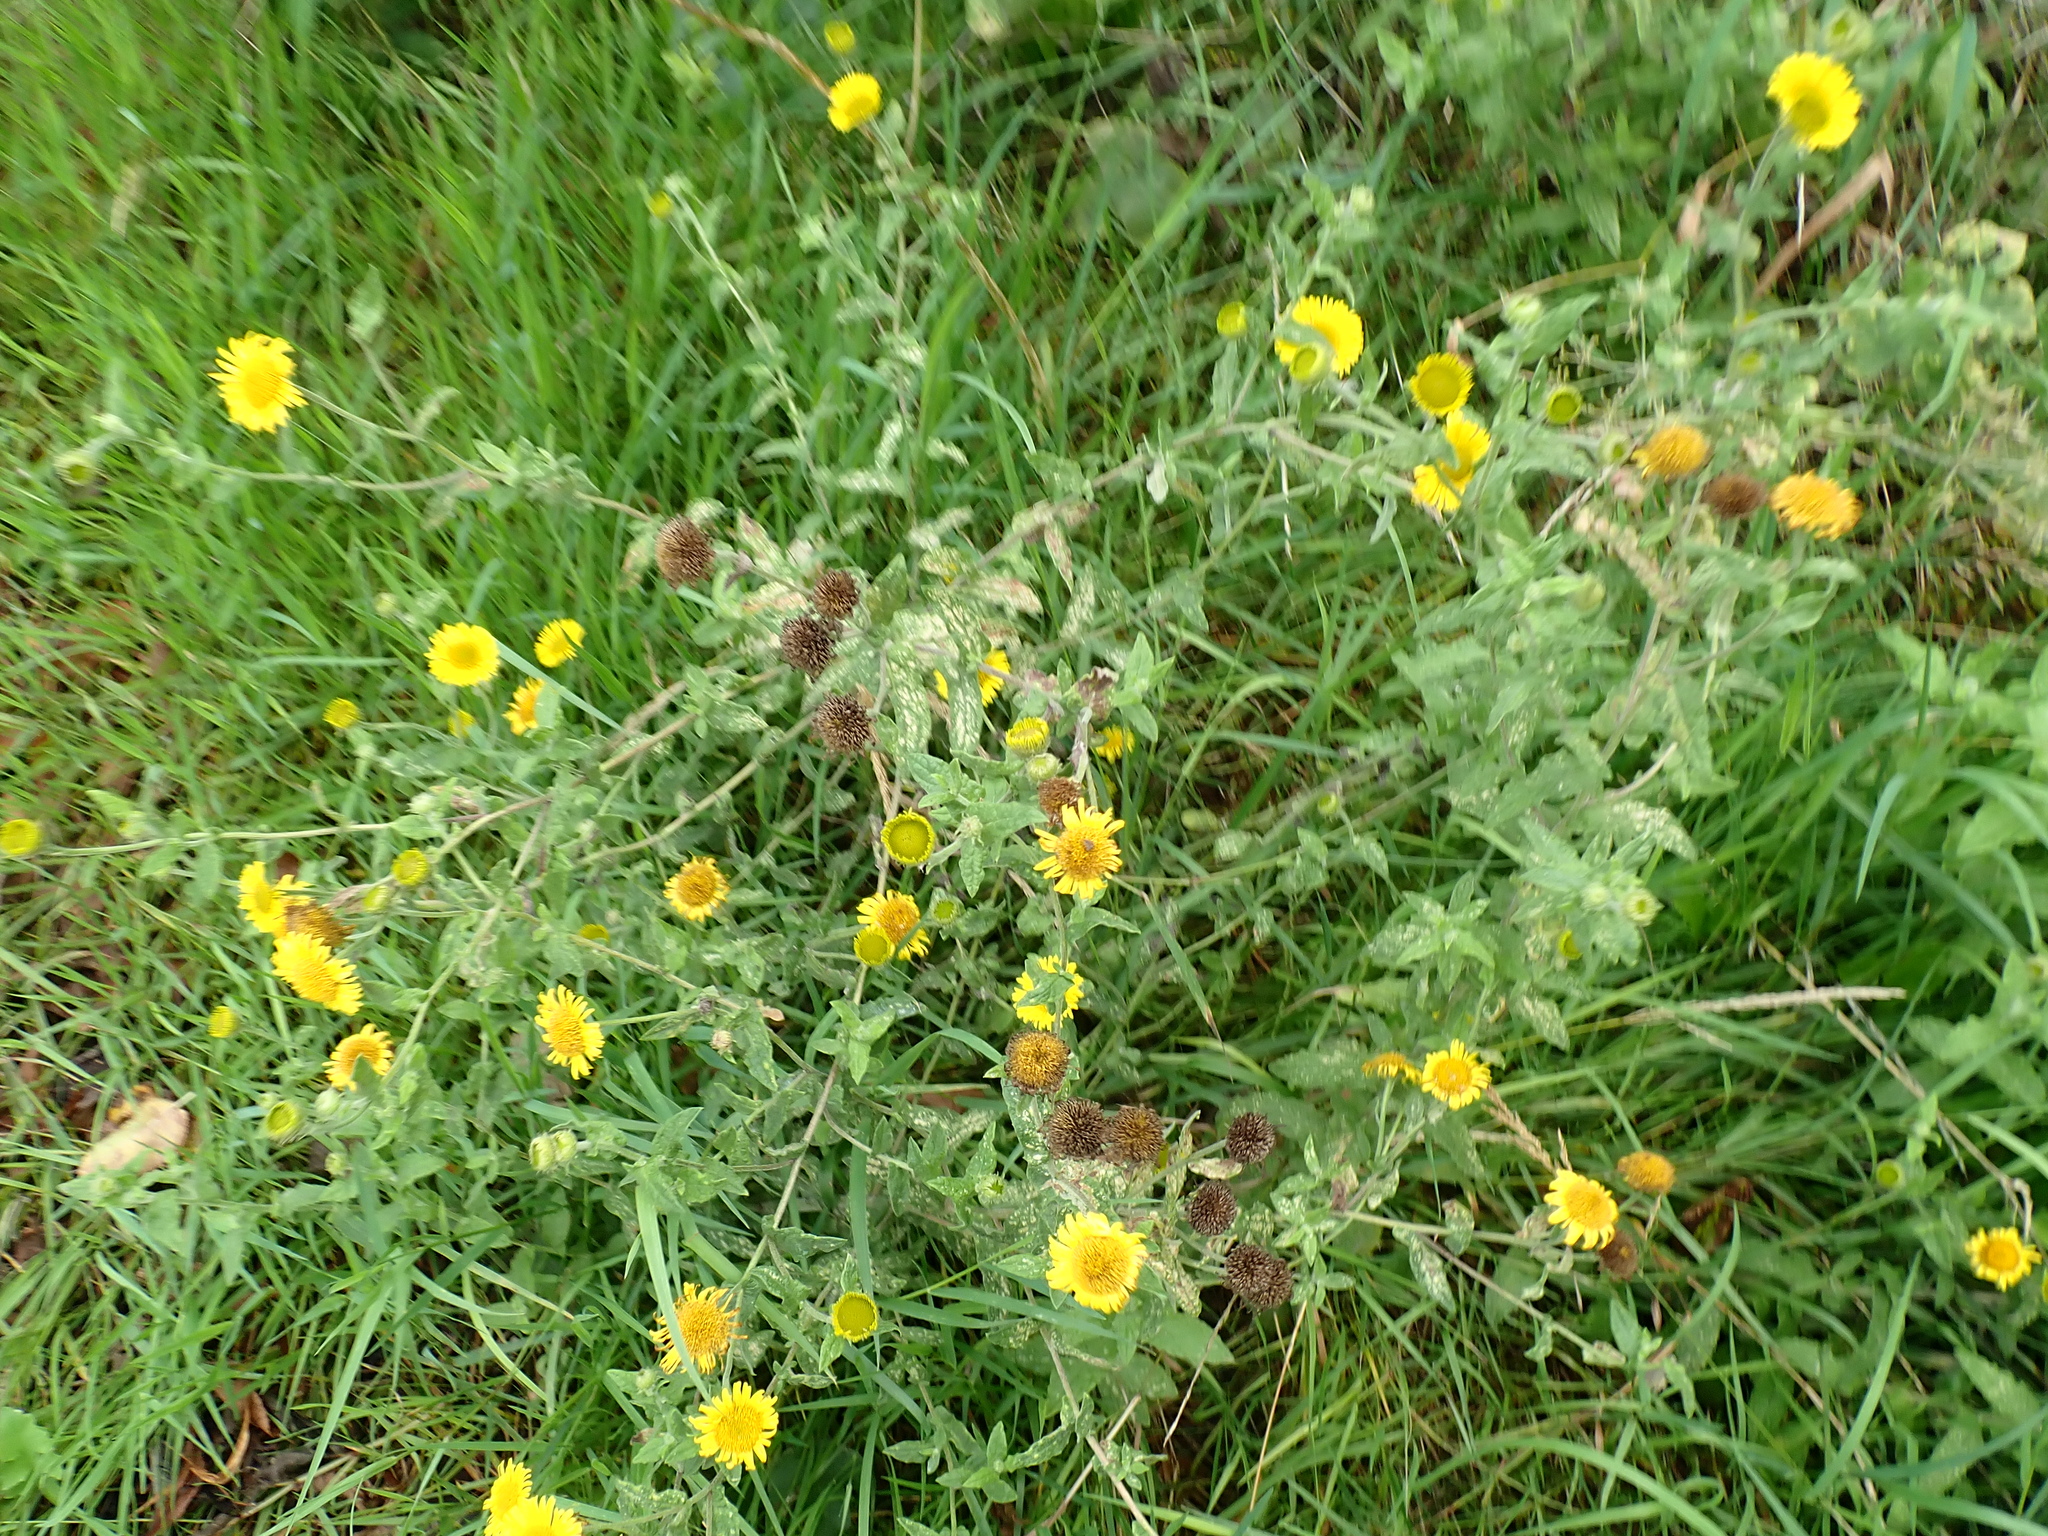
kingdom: Plantae
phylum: Tracheophyta
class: Magnoliopsida
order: Asterales
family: Asteraceae
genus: Pulicaria
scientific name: Pulicaria dysenterica
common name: Common fleabane
